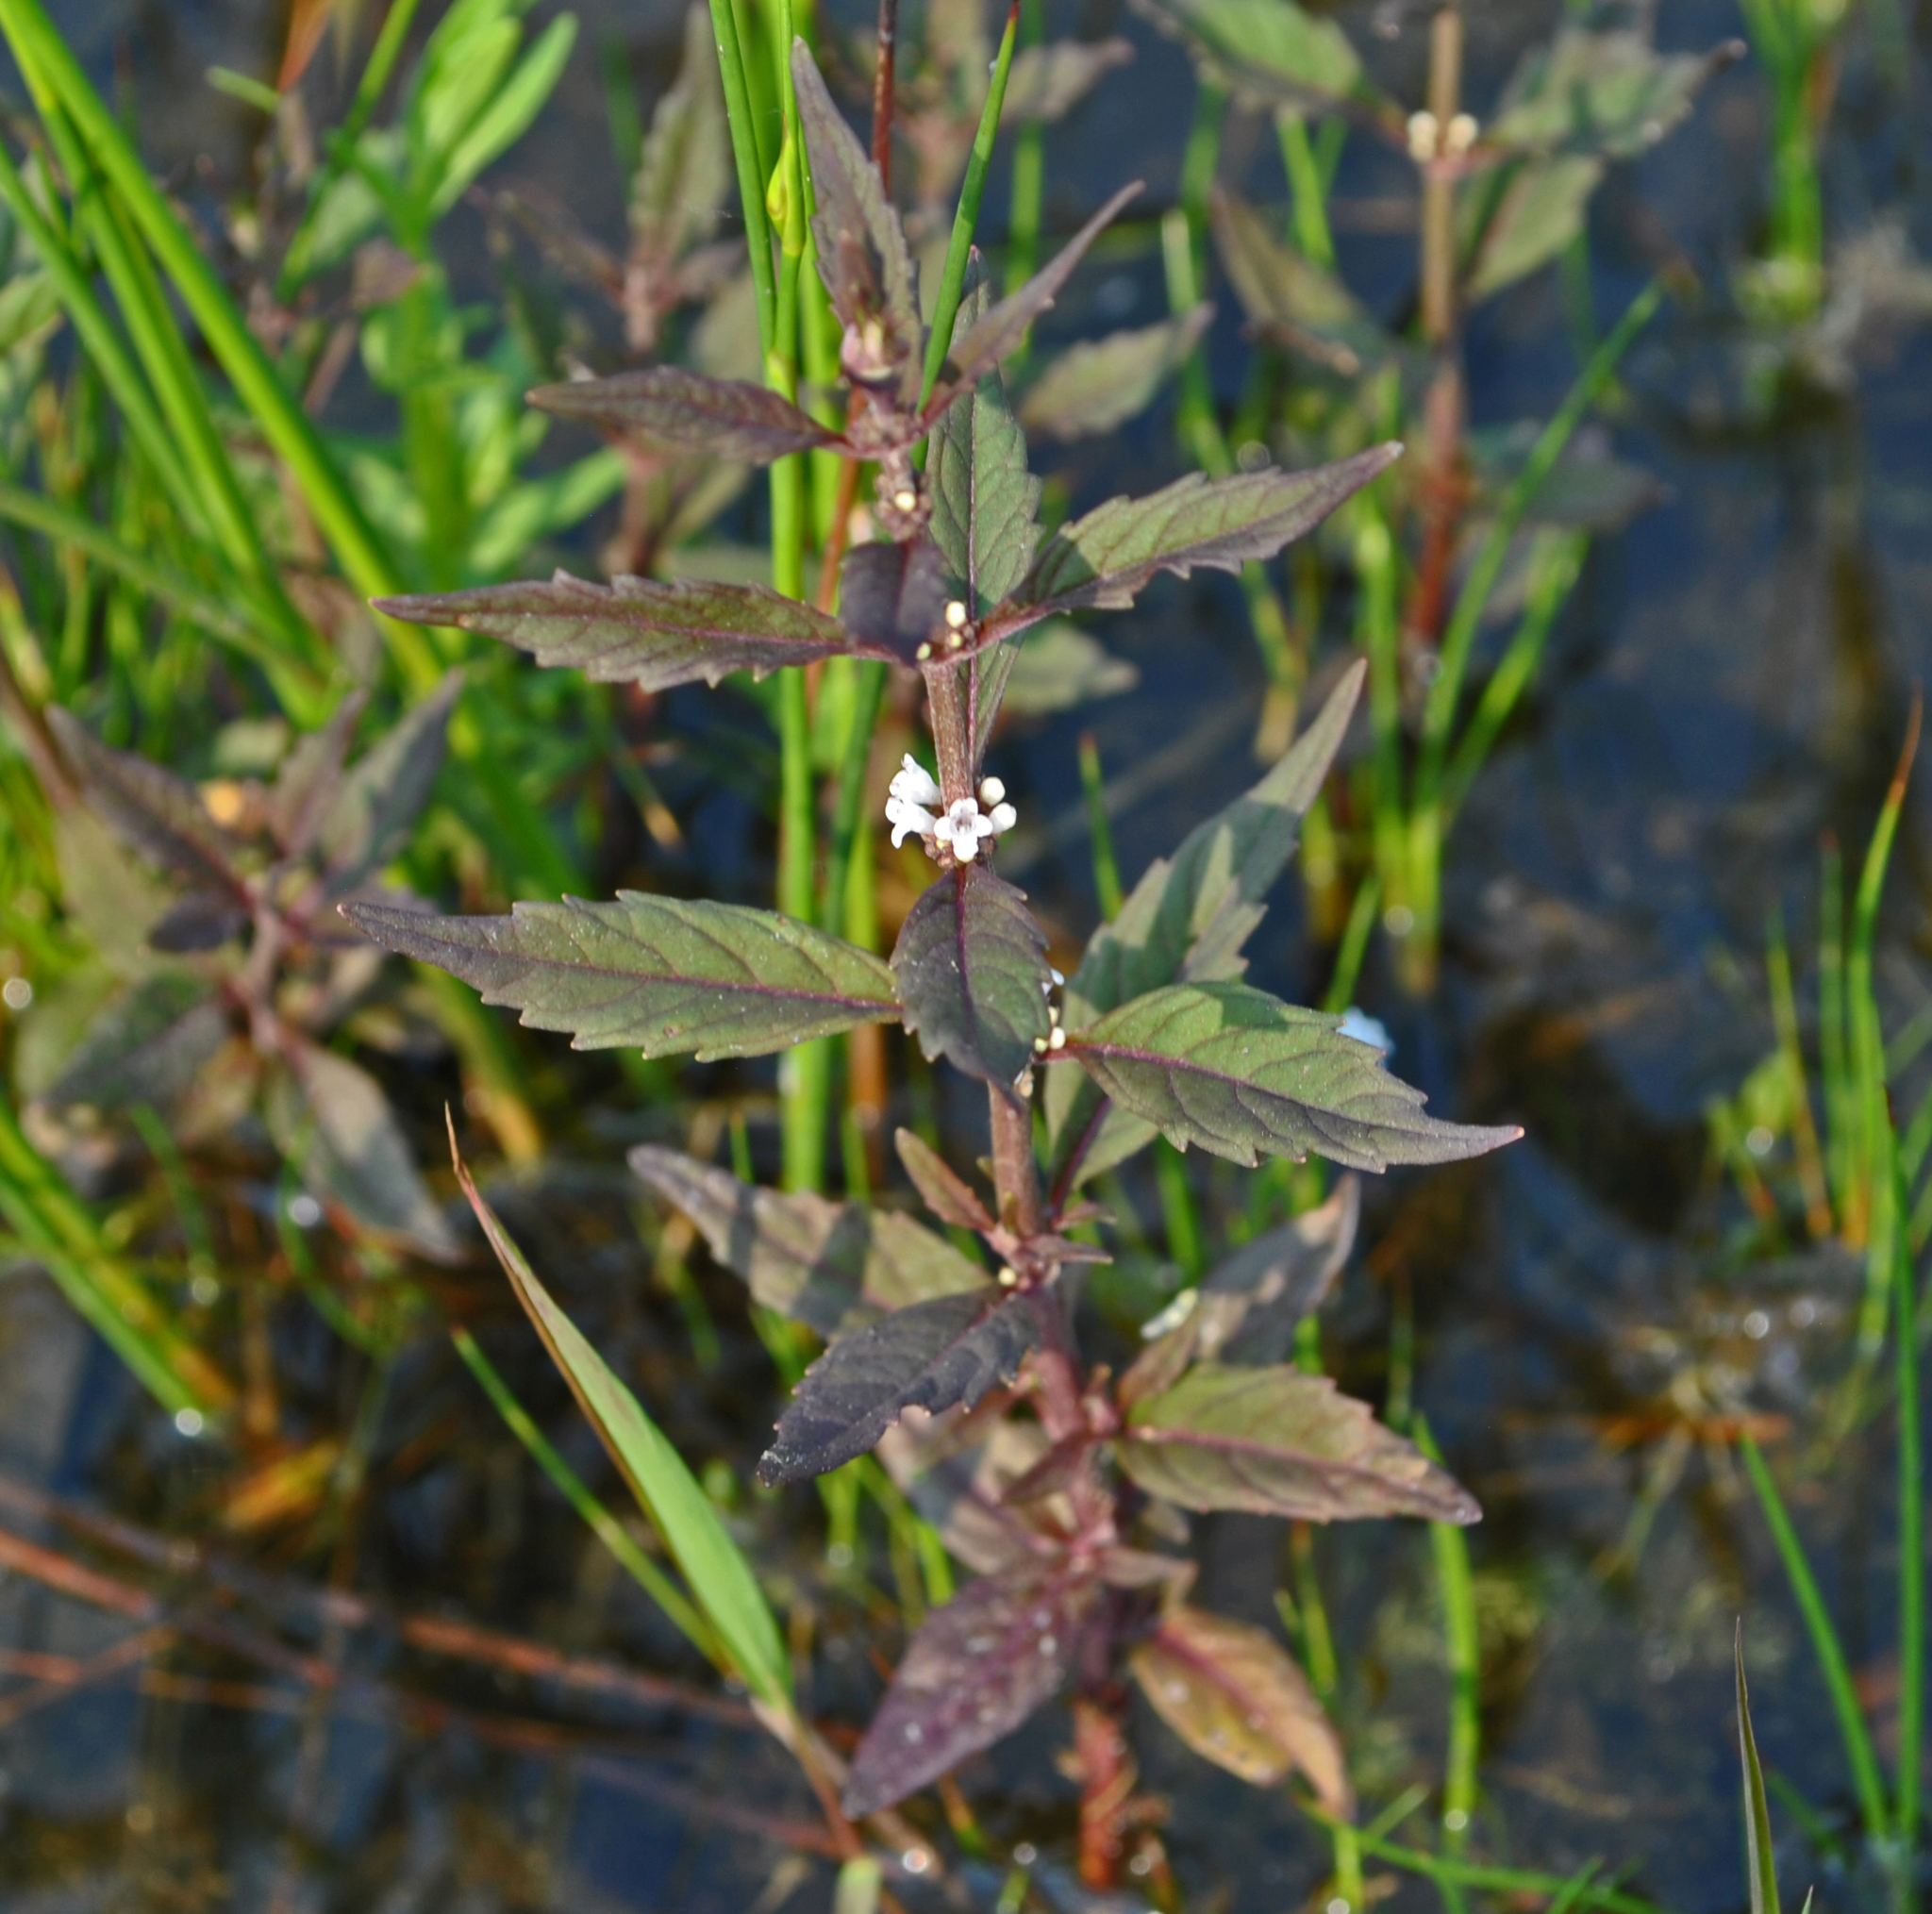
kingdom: Plantae
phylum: Tracheophyta
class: Magnoliopsida
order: Lamiales
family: Lamiaceae
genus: Lycopus
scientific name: Lycopus uniflorus
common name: Northern bugleweed
